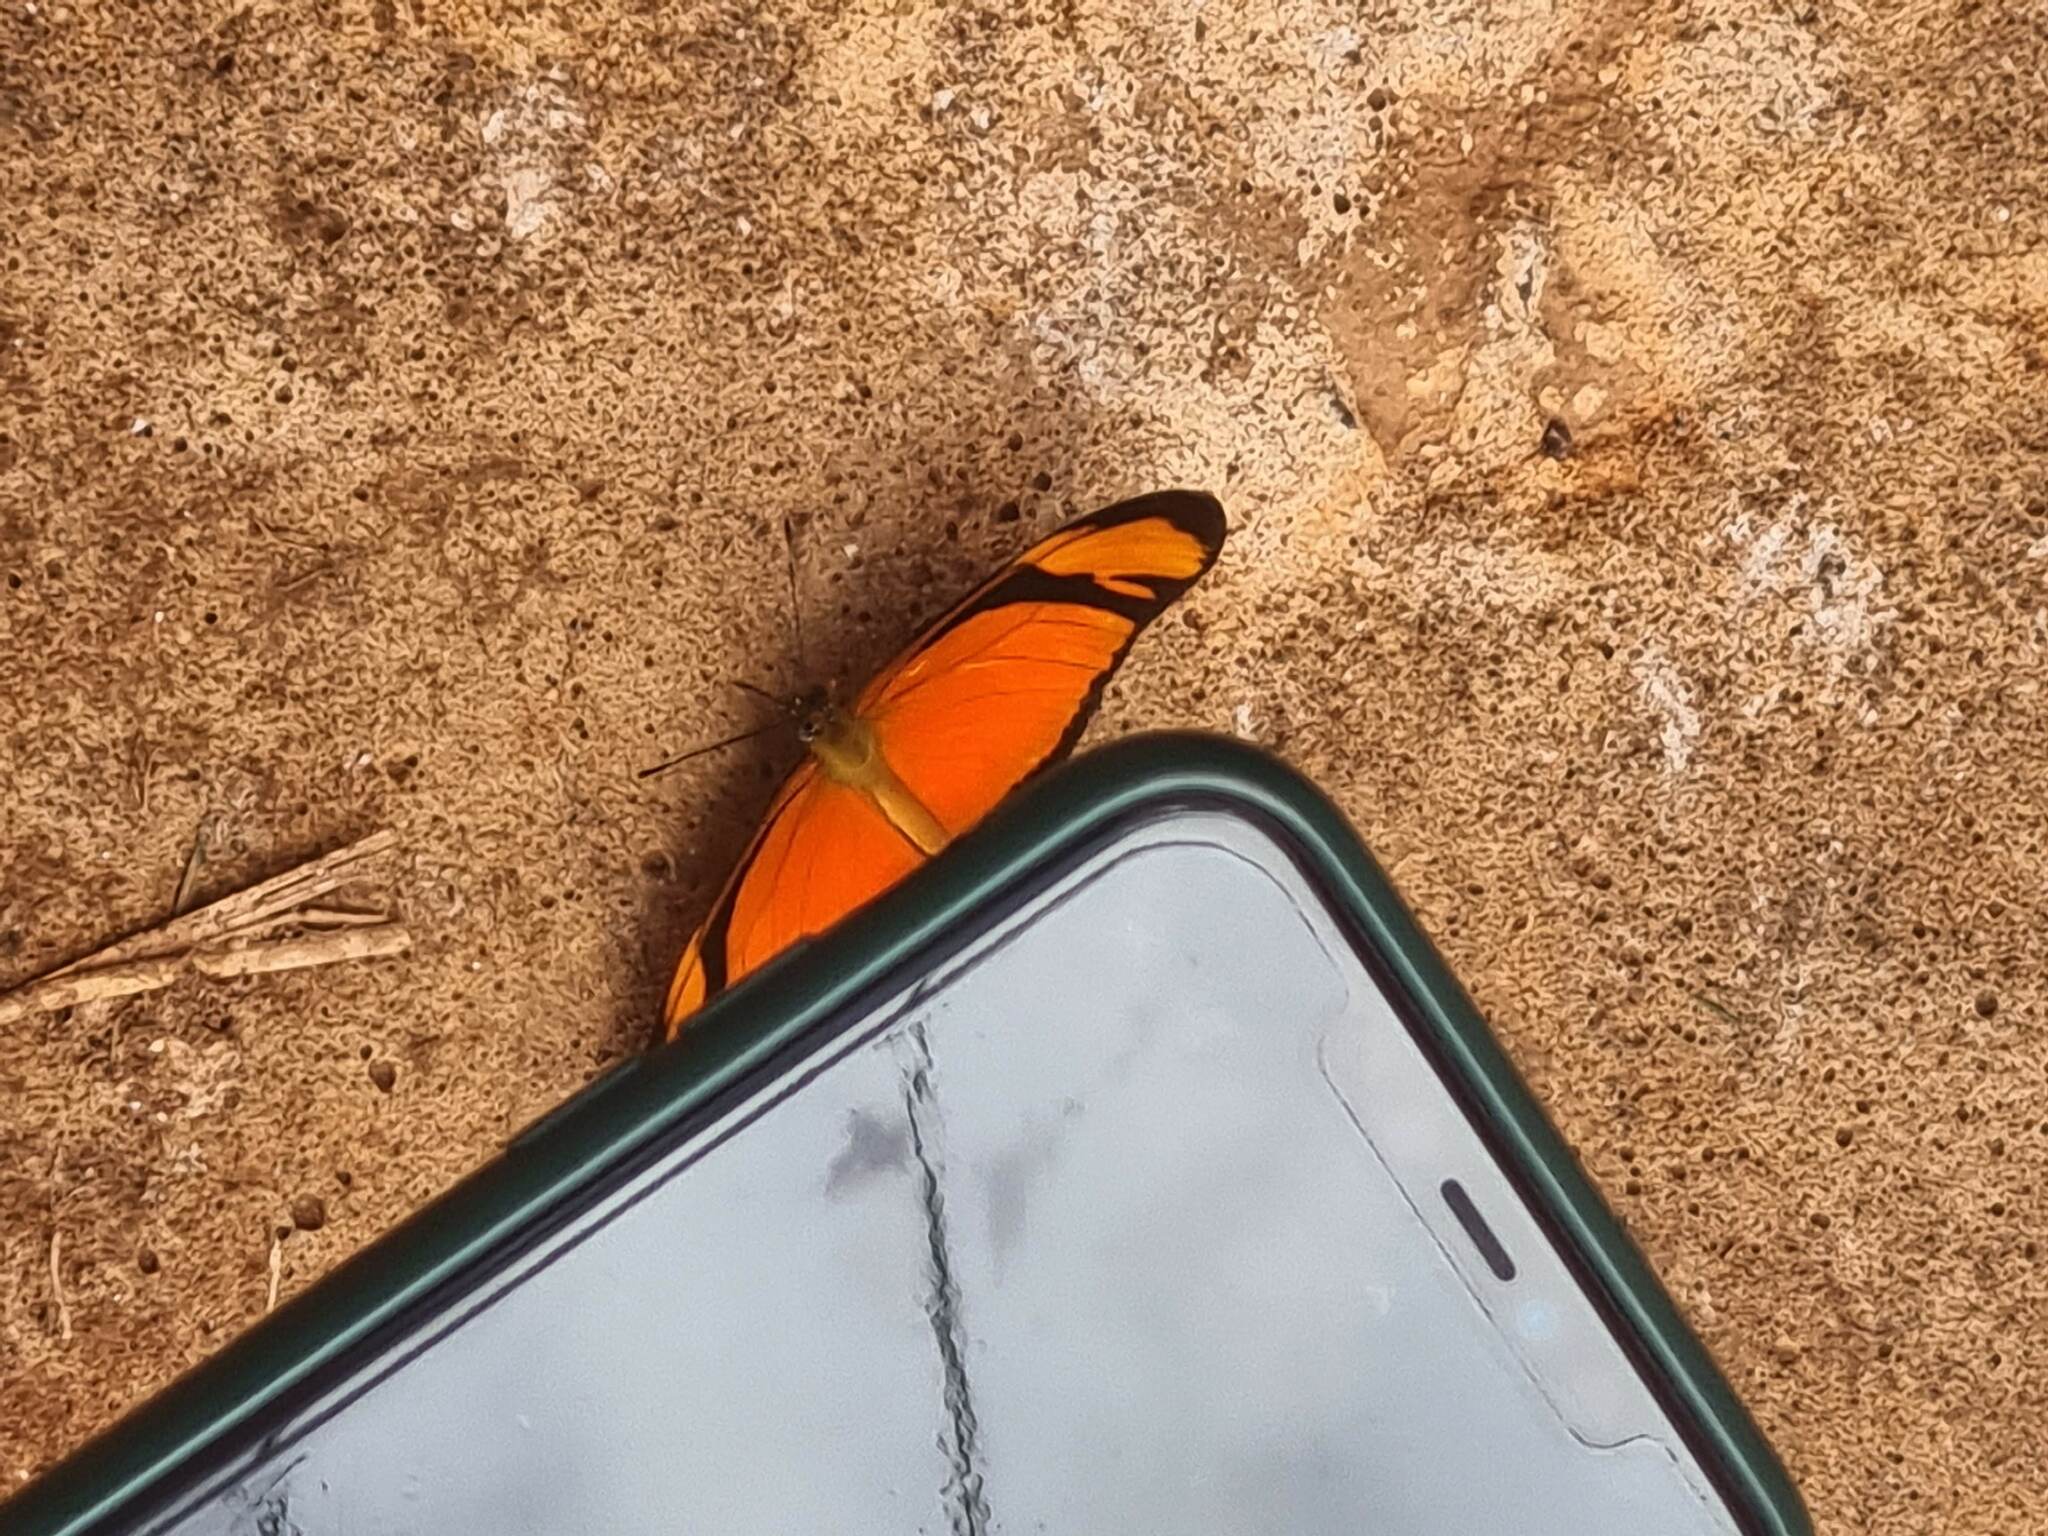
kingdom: Animalia
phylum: Arthropoda
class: Insecta
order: Lepidoptera
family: Nymphalidae
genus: Dryas
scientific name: Dryas iulia
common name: Flambeau
